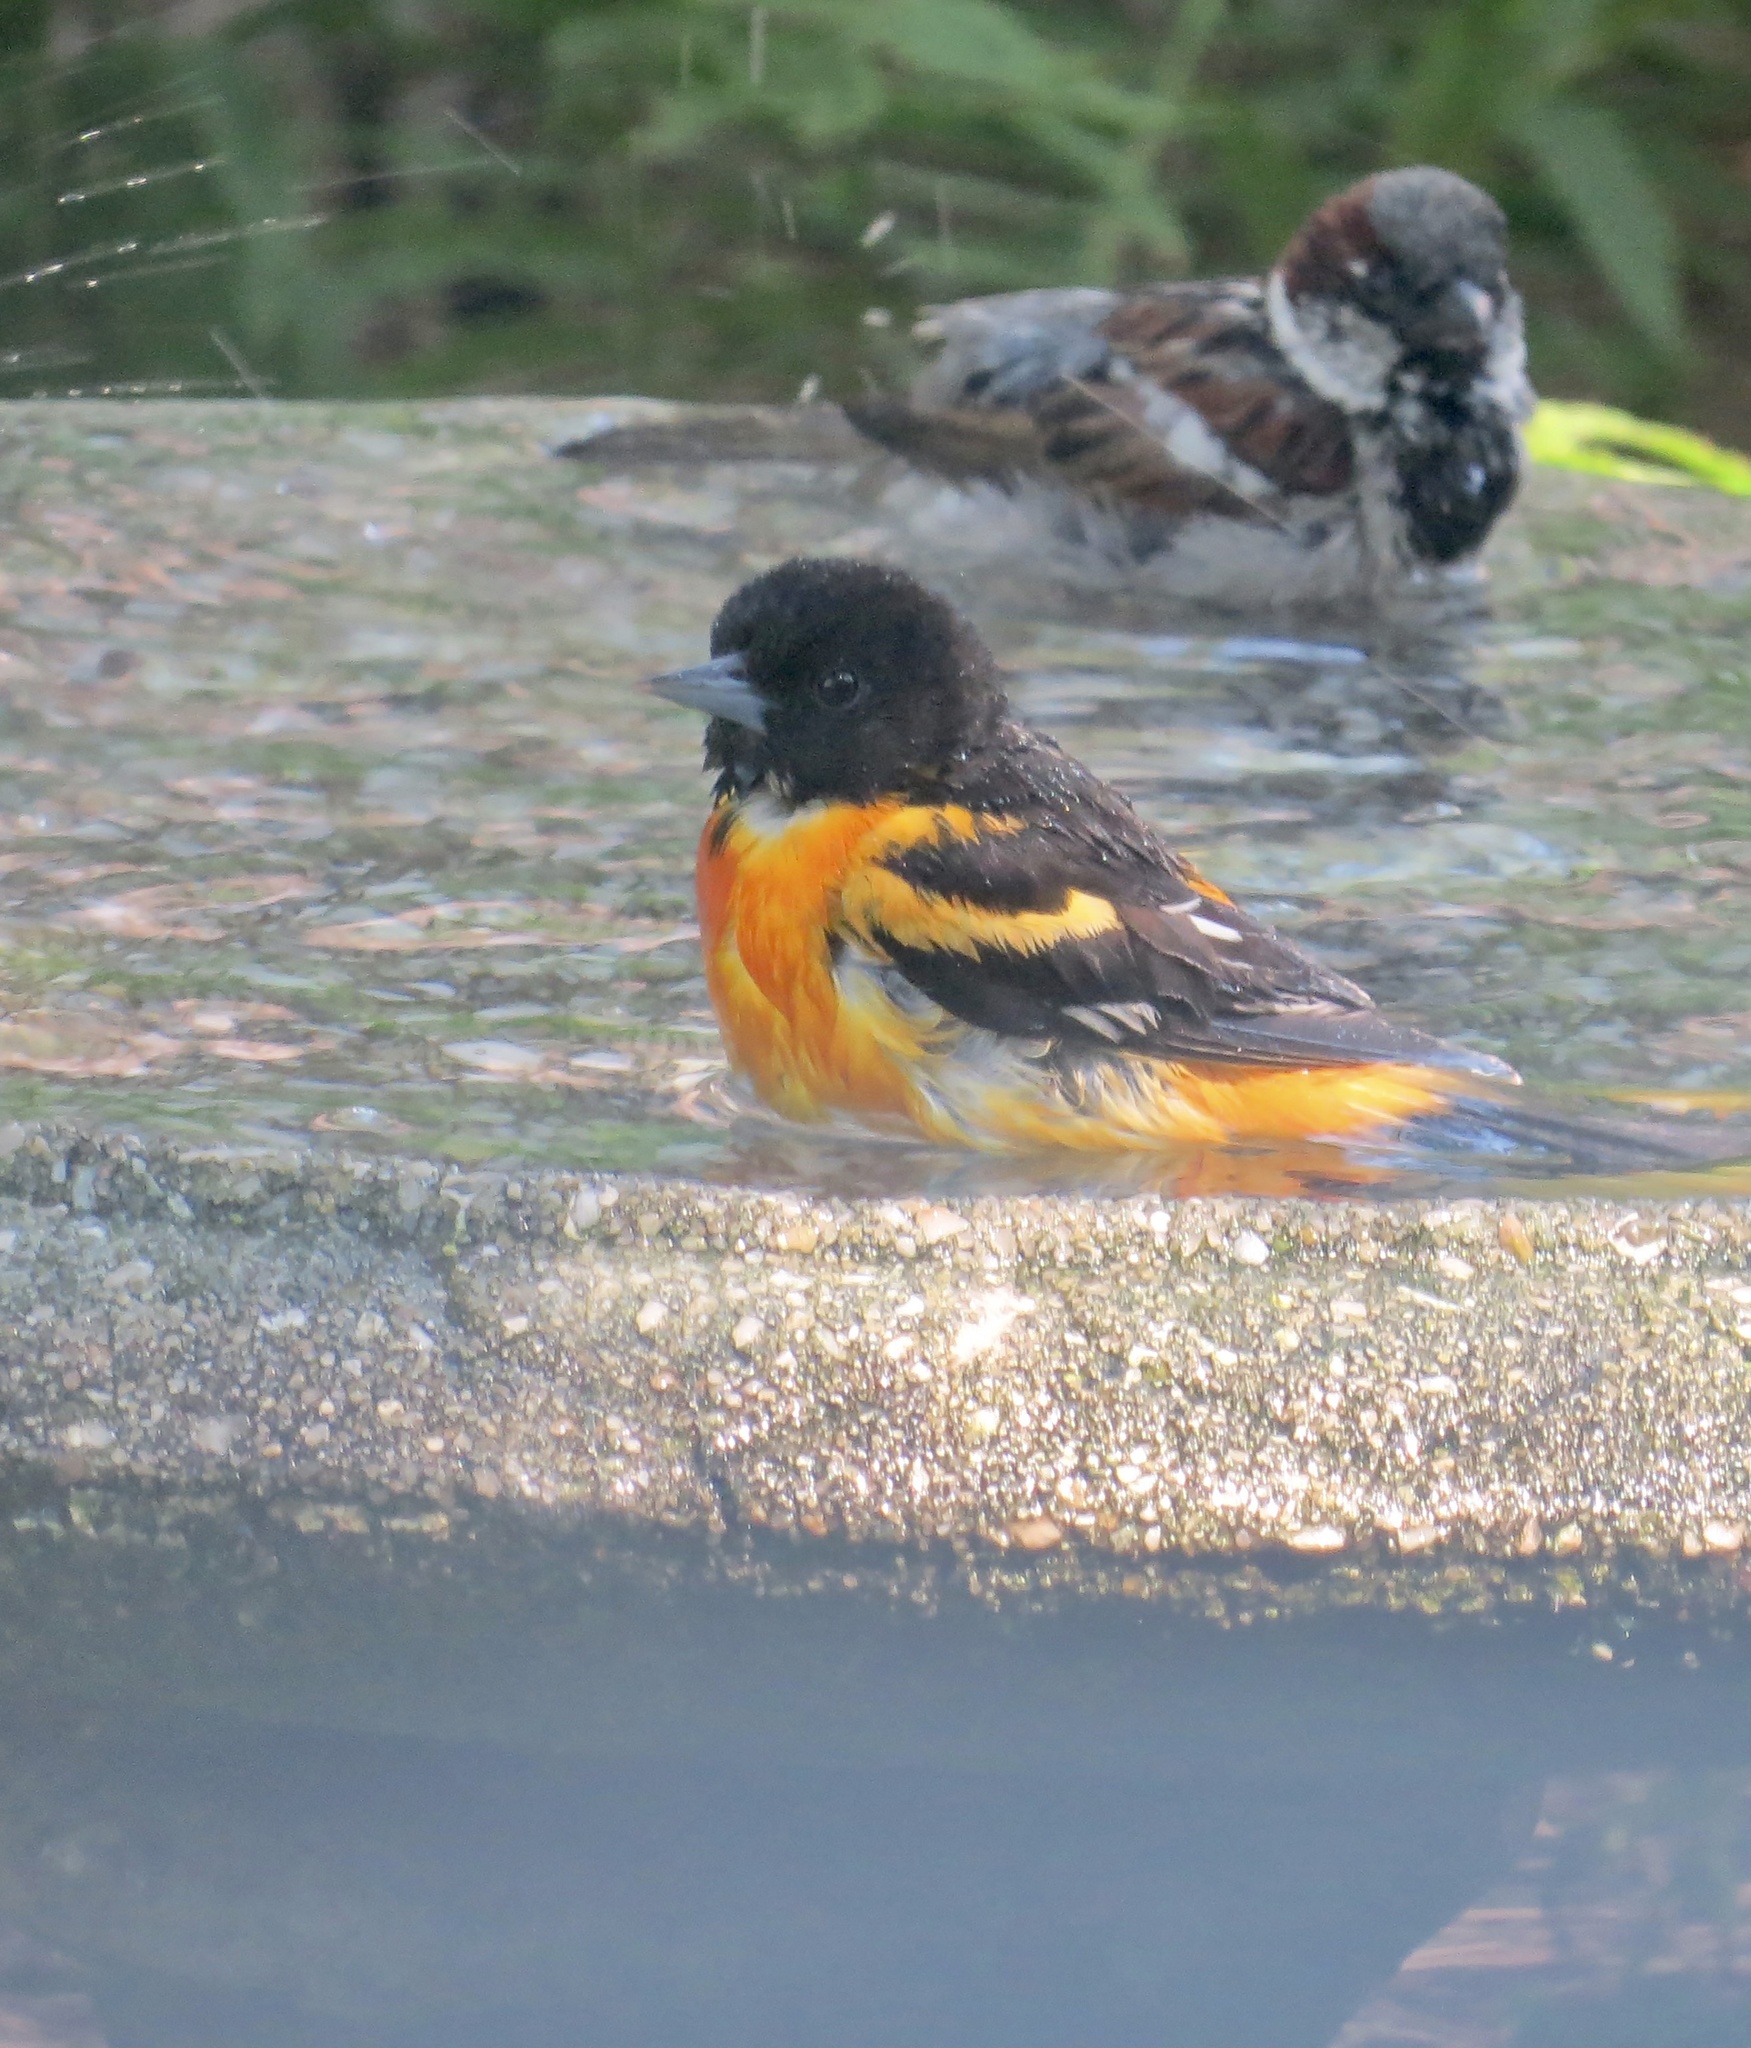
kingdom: Animalia
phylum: Chordata
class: Aves
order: Passeriformes
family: Icteridae
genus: Icterus
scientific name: Icterus galbula
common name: Baltimore oriole
